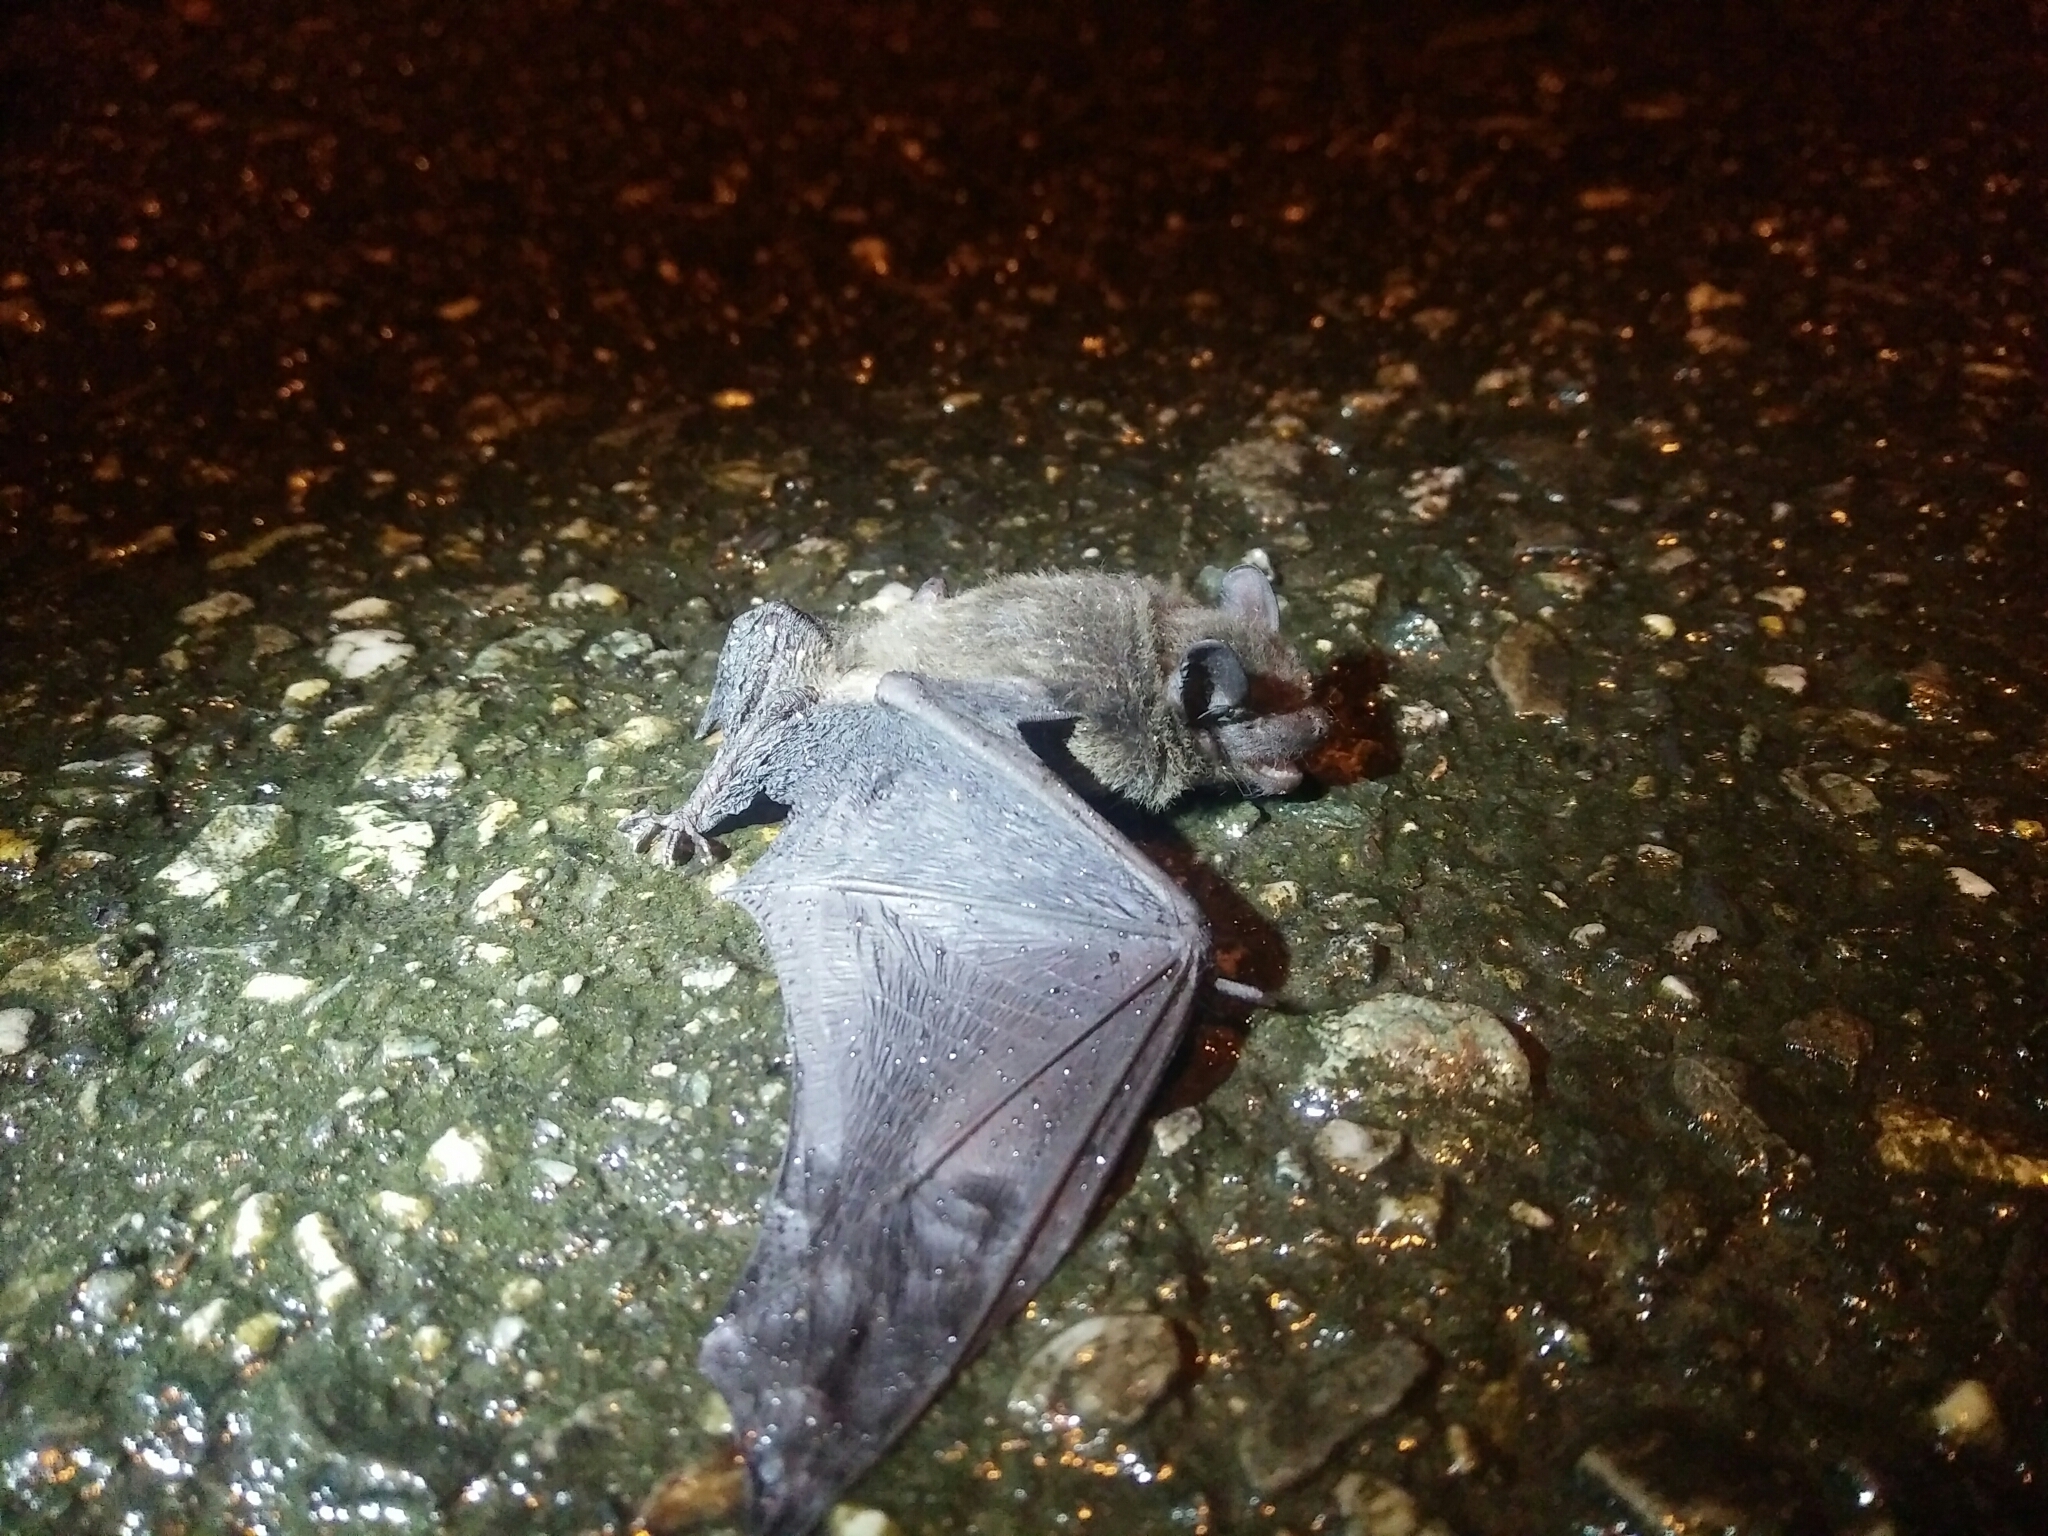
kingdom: Animalia
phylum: Chordata
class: Mammalia
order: Chiroptera
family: Vespertilionidae
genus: Pipistrellus
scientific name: Pipistrellus abramus
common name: Japanese pipistrelle
